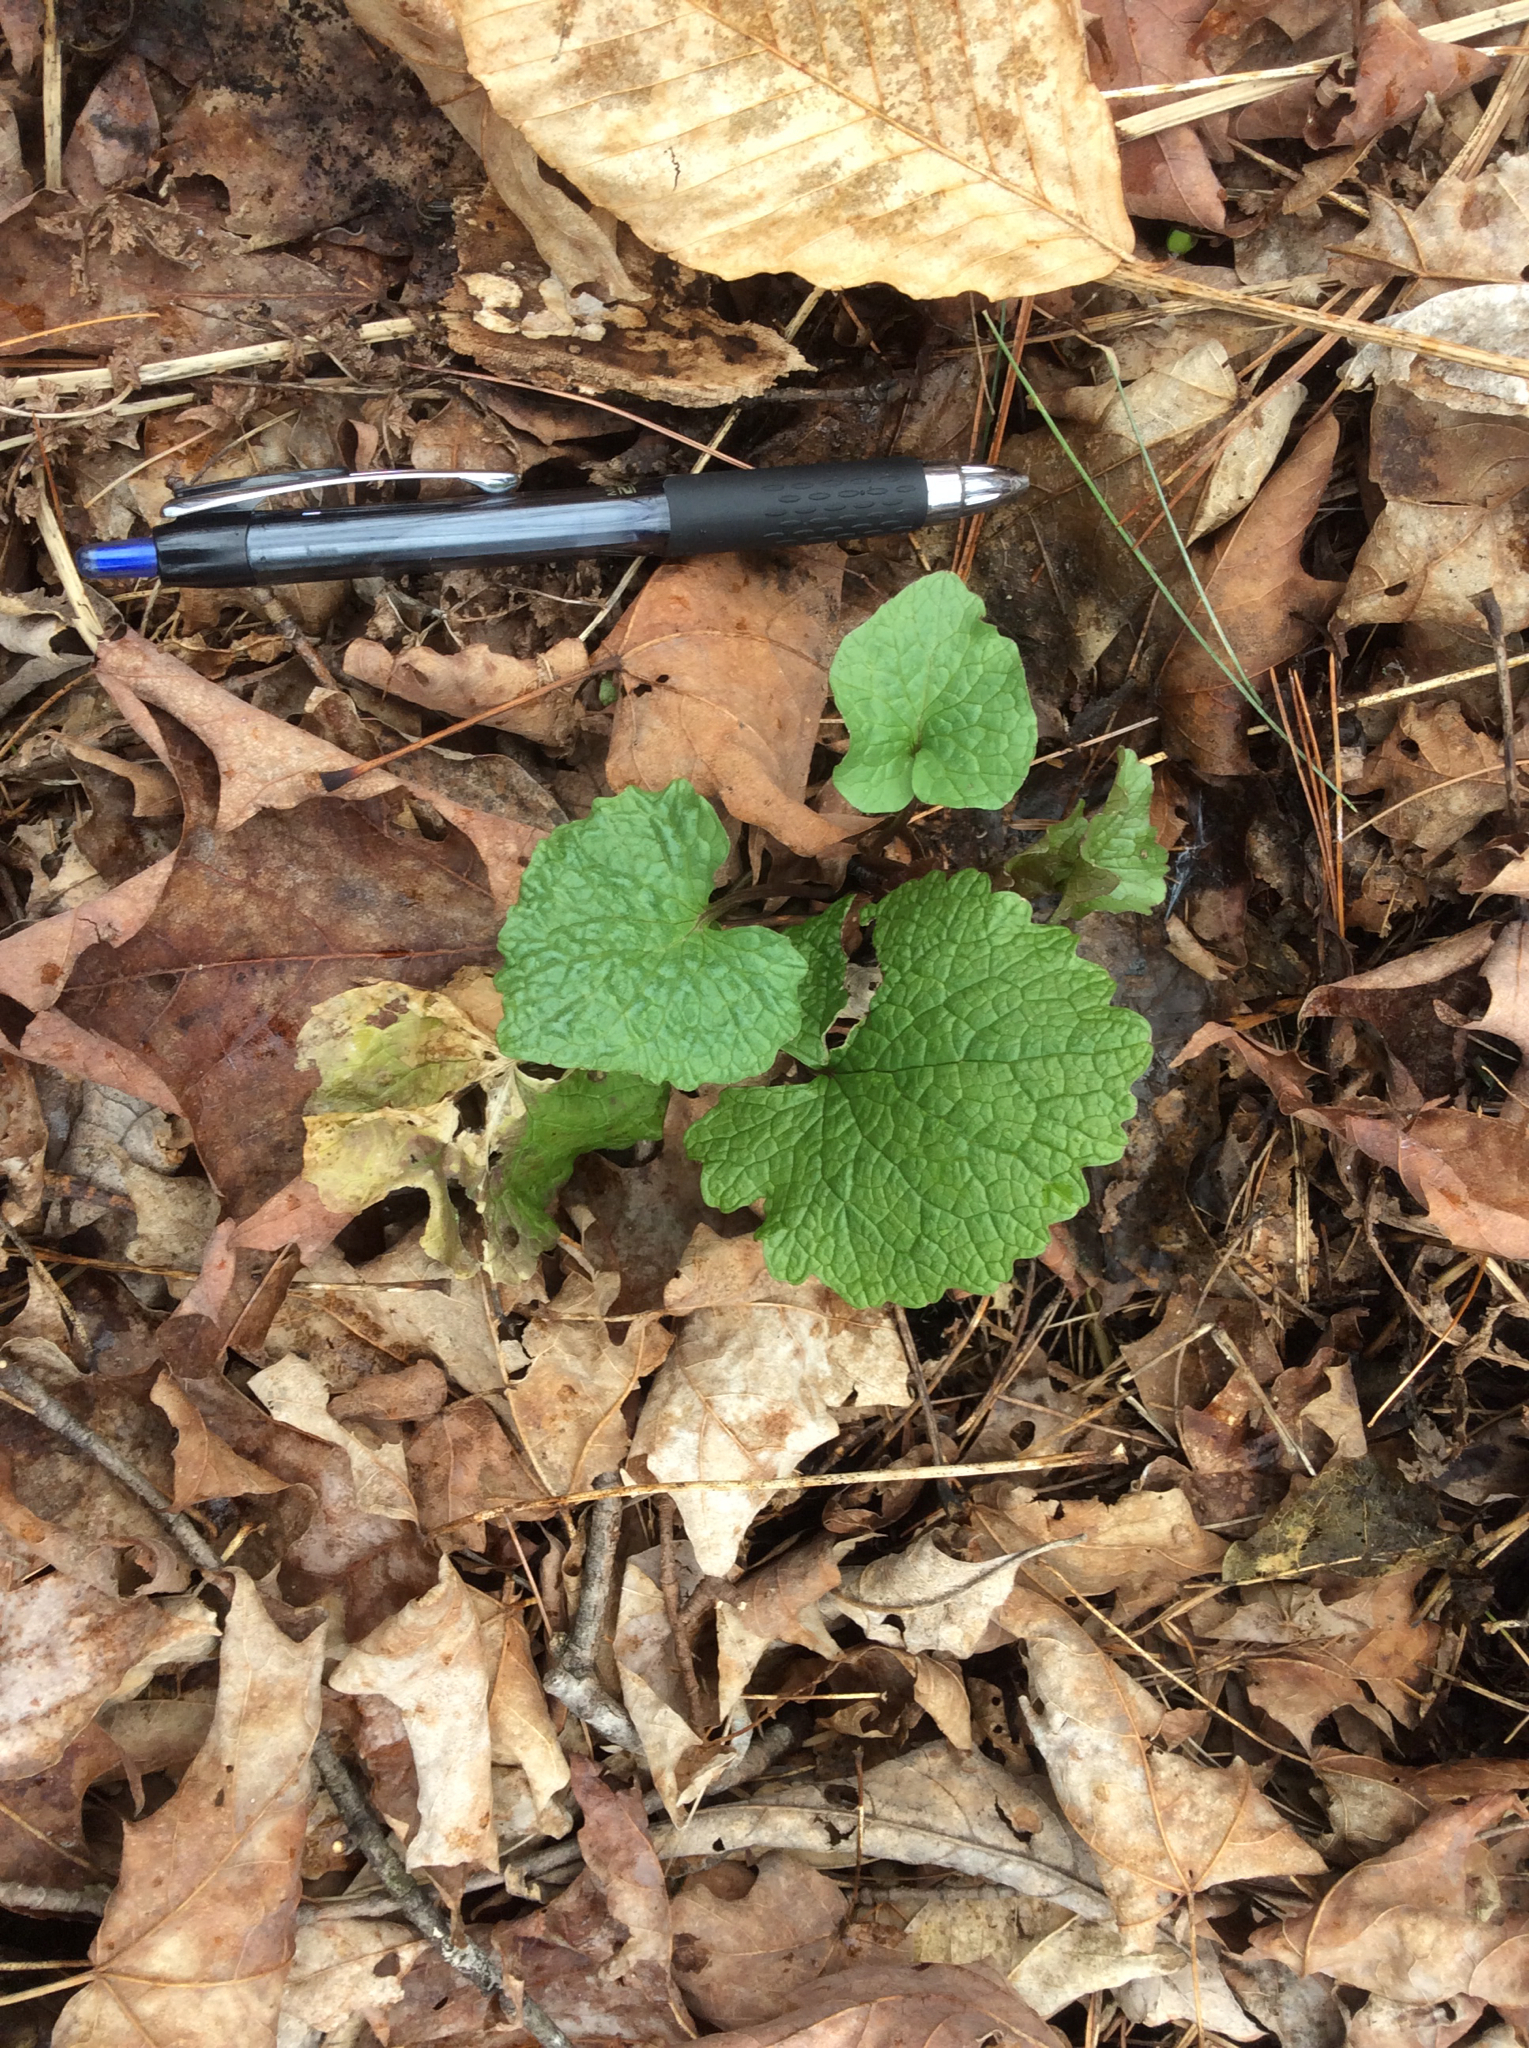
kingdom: Plantae
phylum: Tracheophyta
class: Magnoliopsida
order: Brassicales
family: Brassicaceae
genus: Alliaria
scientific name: Alliaria petiolata
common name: Garlic mustard
